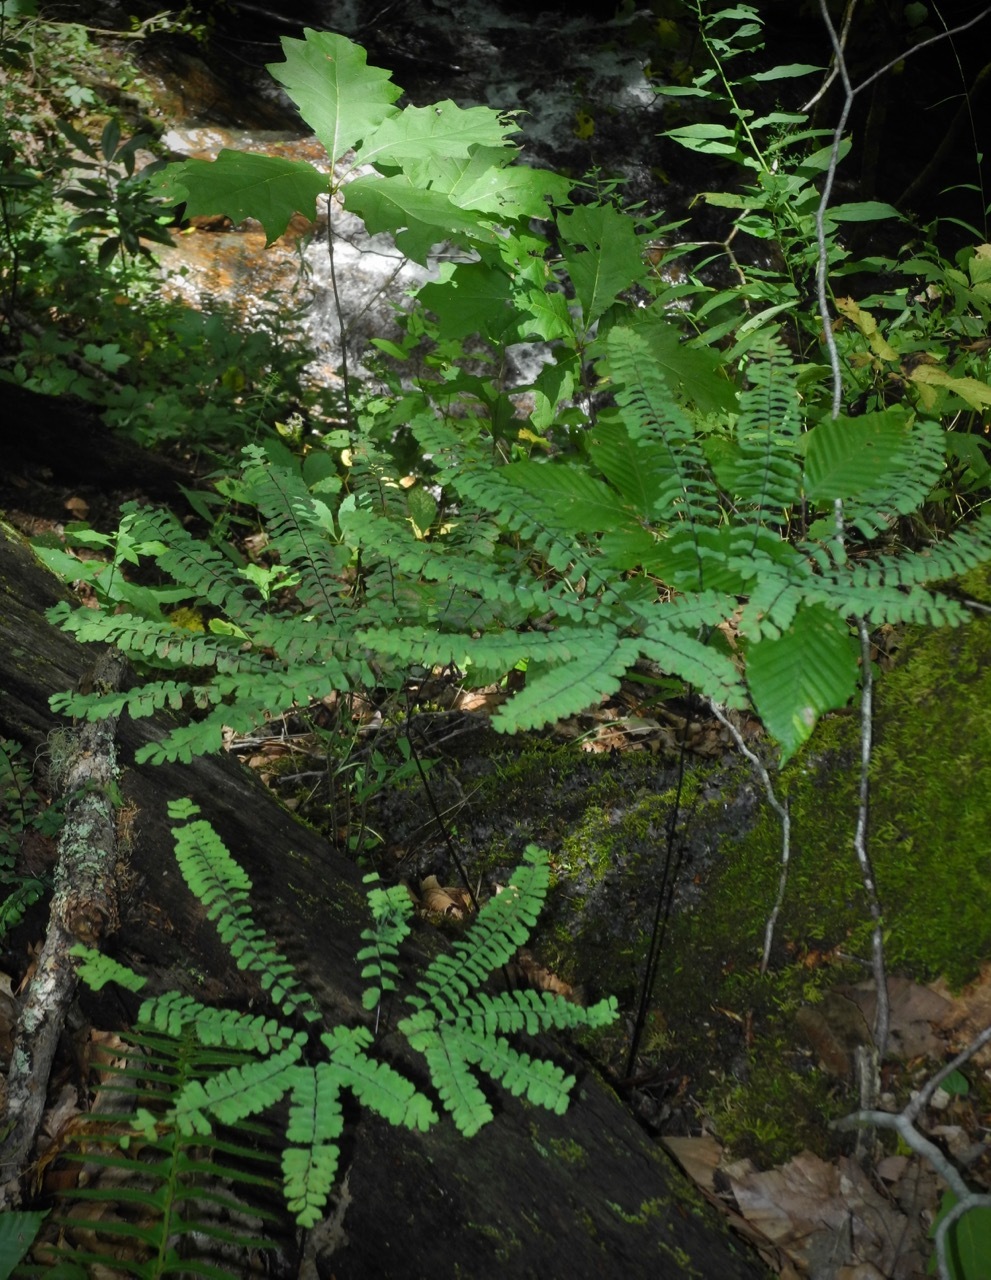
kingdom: Plantae
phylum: Tracheophyta
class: Polypodiopsida
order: Polypodiales
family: Pteridaceae
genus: Adiantum
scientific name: Adiantum pedatum
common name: Five-finger fern
